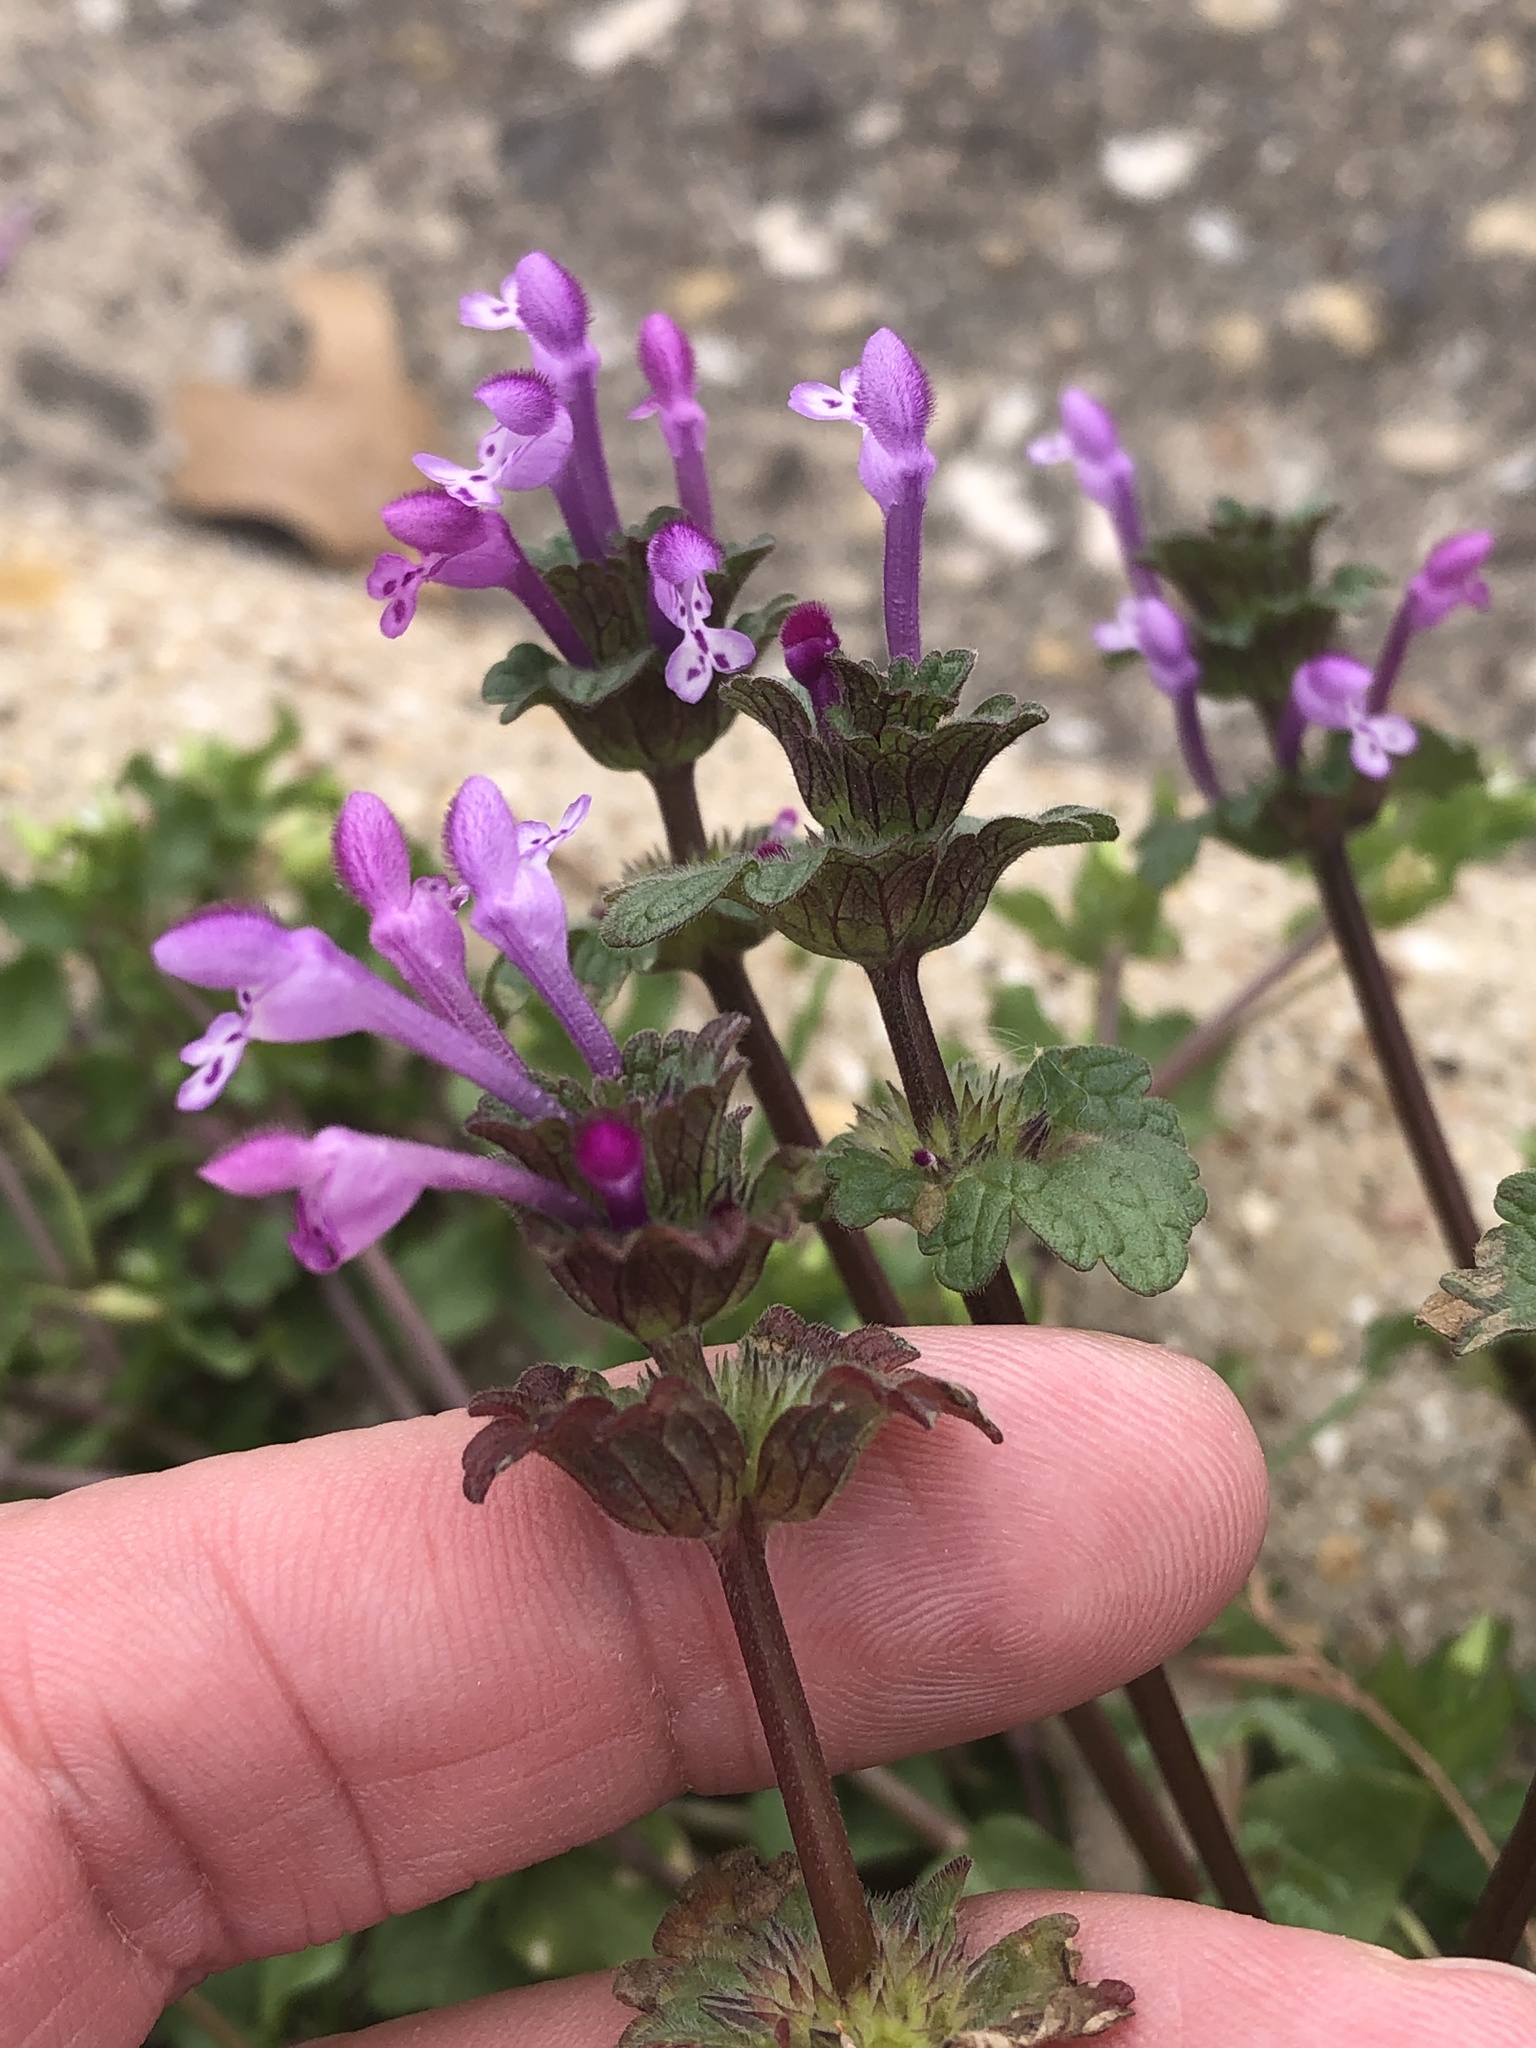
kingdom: Plantae
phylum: Tracheophyta
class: Magnoliopsida
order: Lamiales
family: Lamiaceae
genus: Lamium
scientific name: Lamium amplexicaule
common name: Henbit dead-nettle
